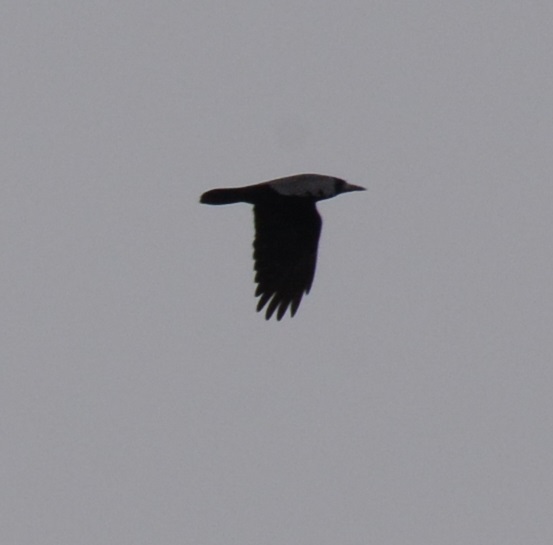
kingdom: Animalia
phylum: Chordata
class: Aves
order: Passeriformes
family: Corvidae
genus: Corvus
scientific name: Corvus frugilegus
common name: Rook
